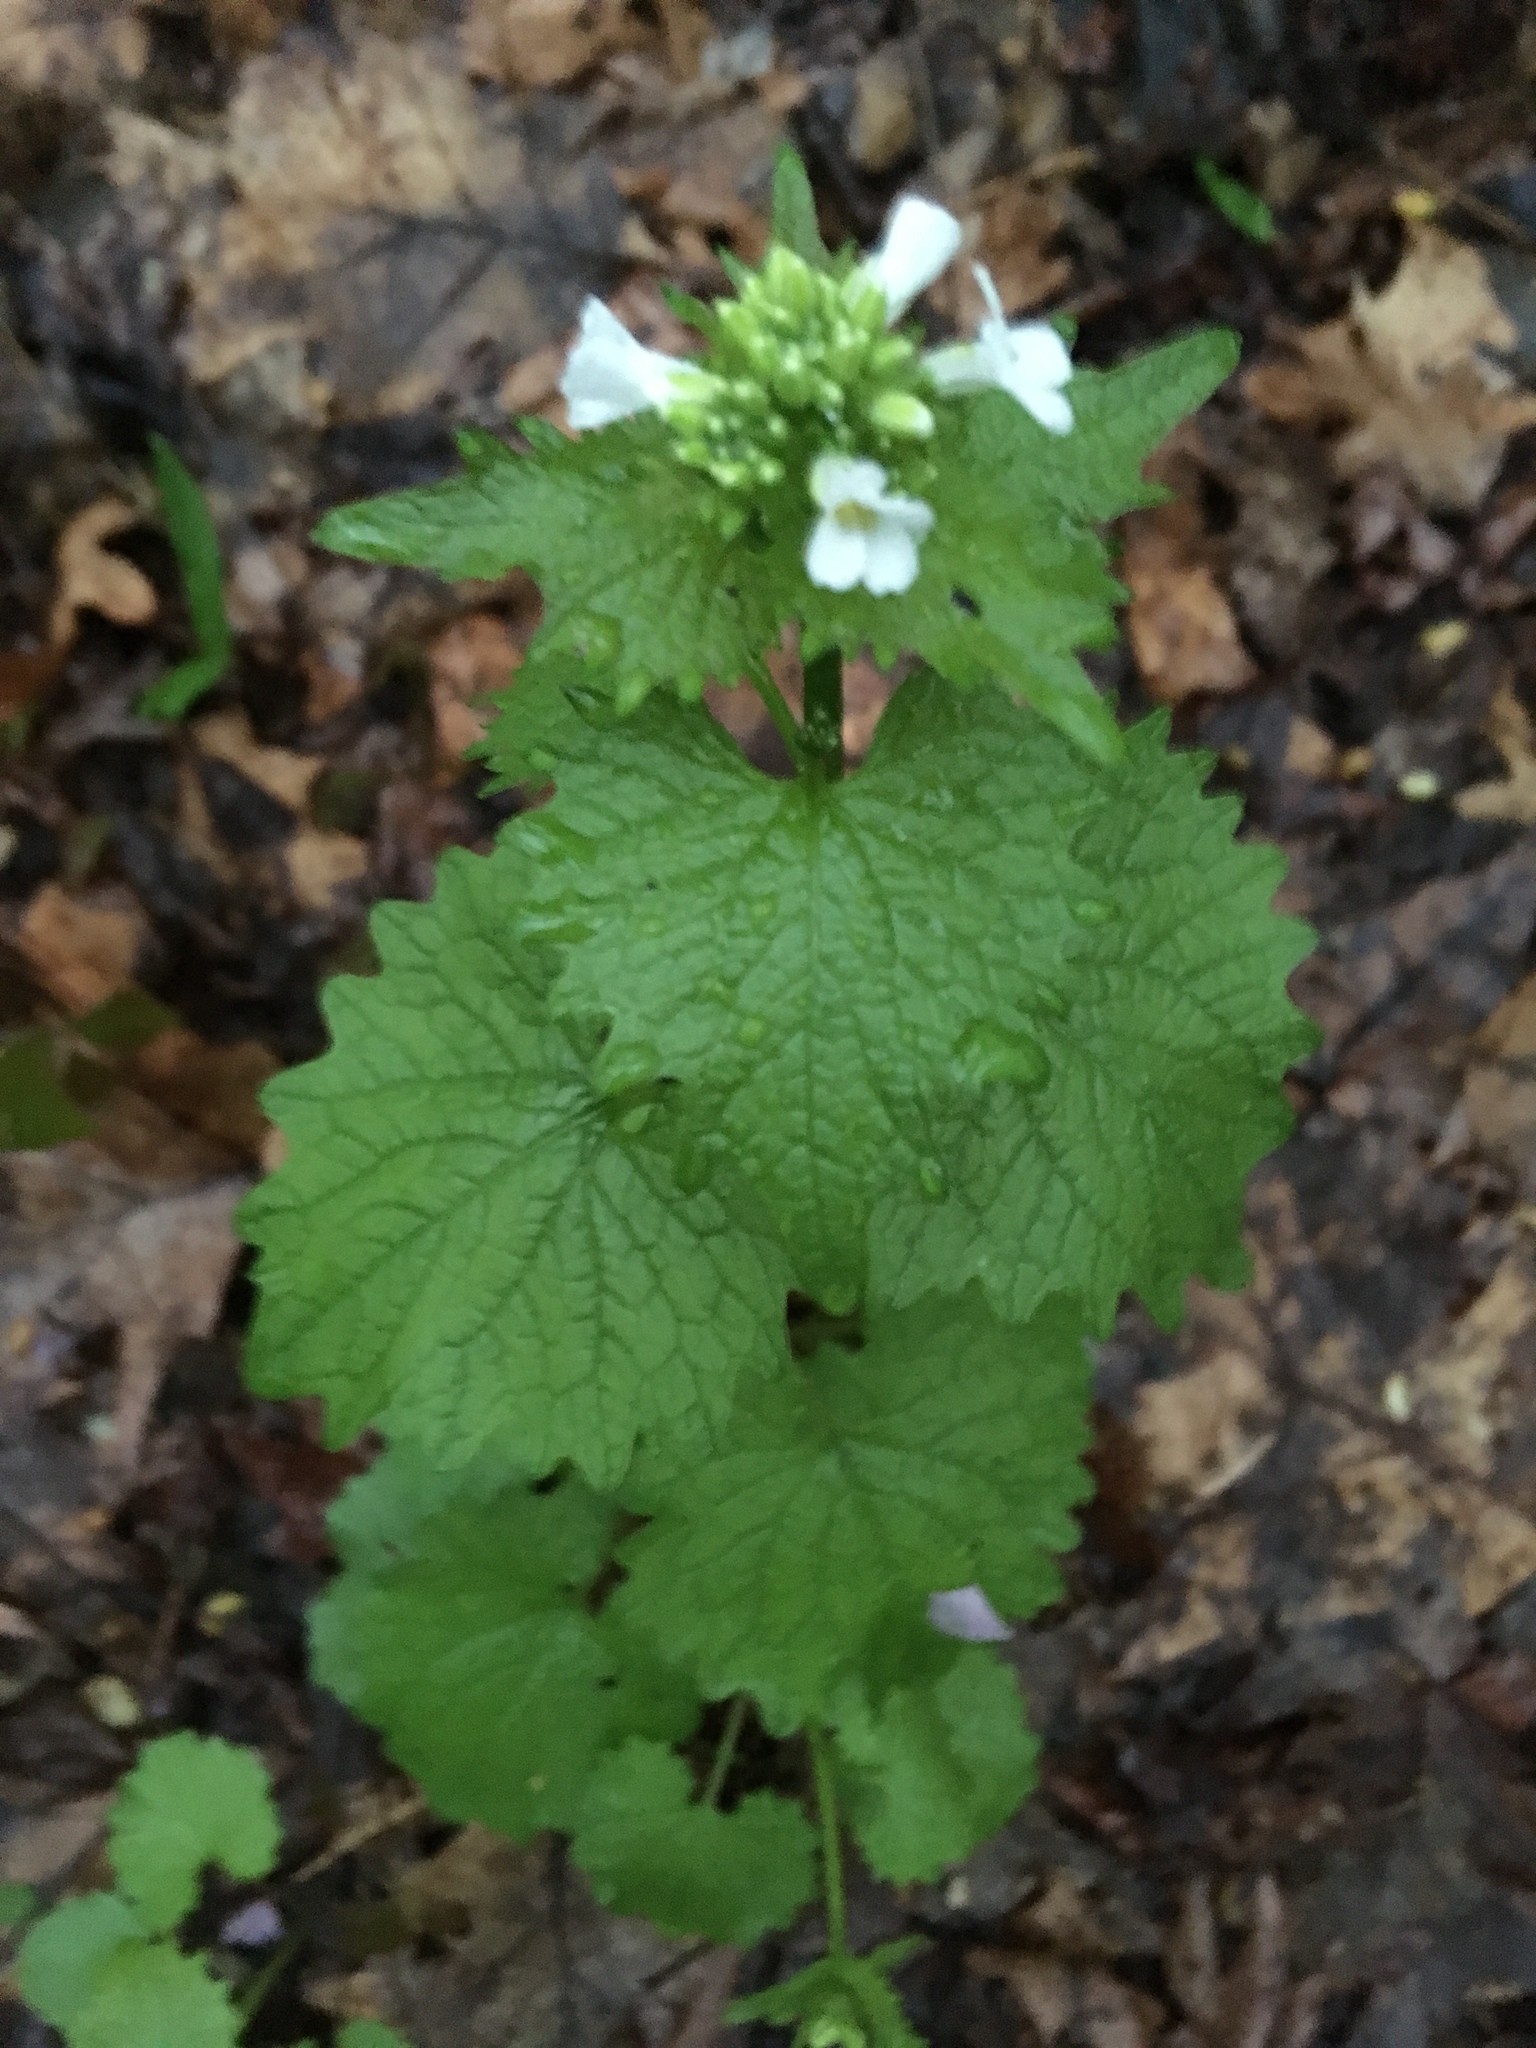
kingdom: Plantae
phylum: Tracheophyta
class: Magnoliopsida
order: Brassicales
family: Brassicaceae
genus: Alliaria
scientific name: Alliaria petiolata
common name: Garlic mustard
